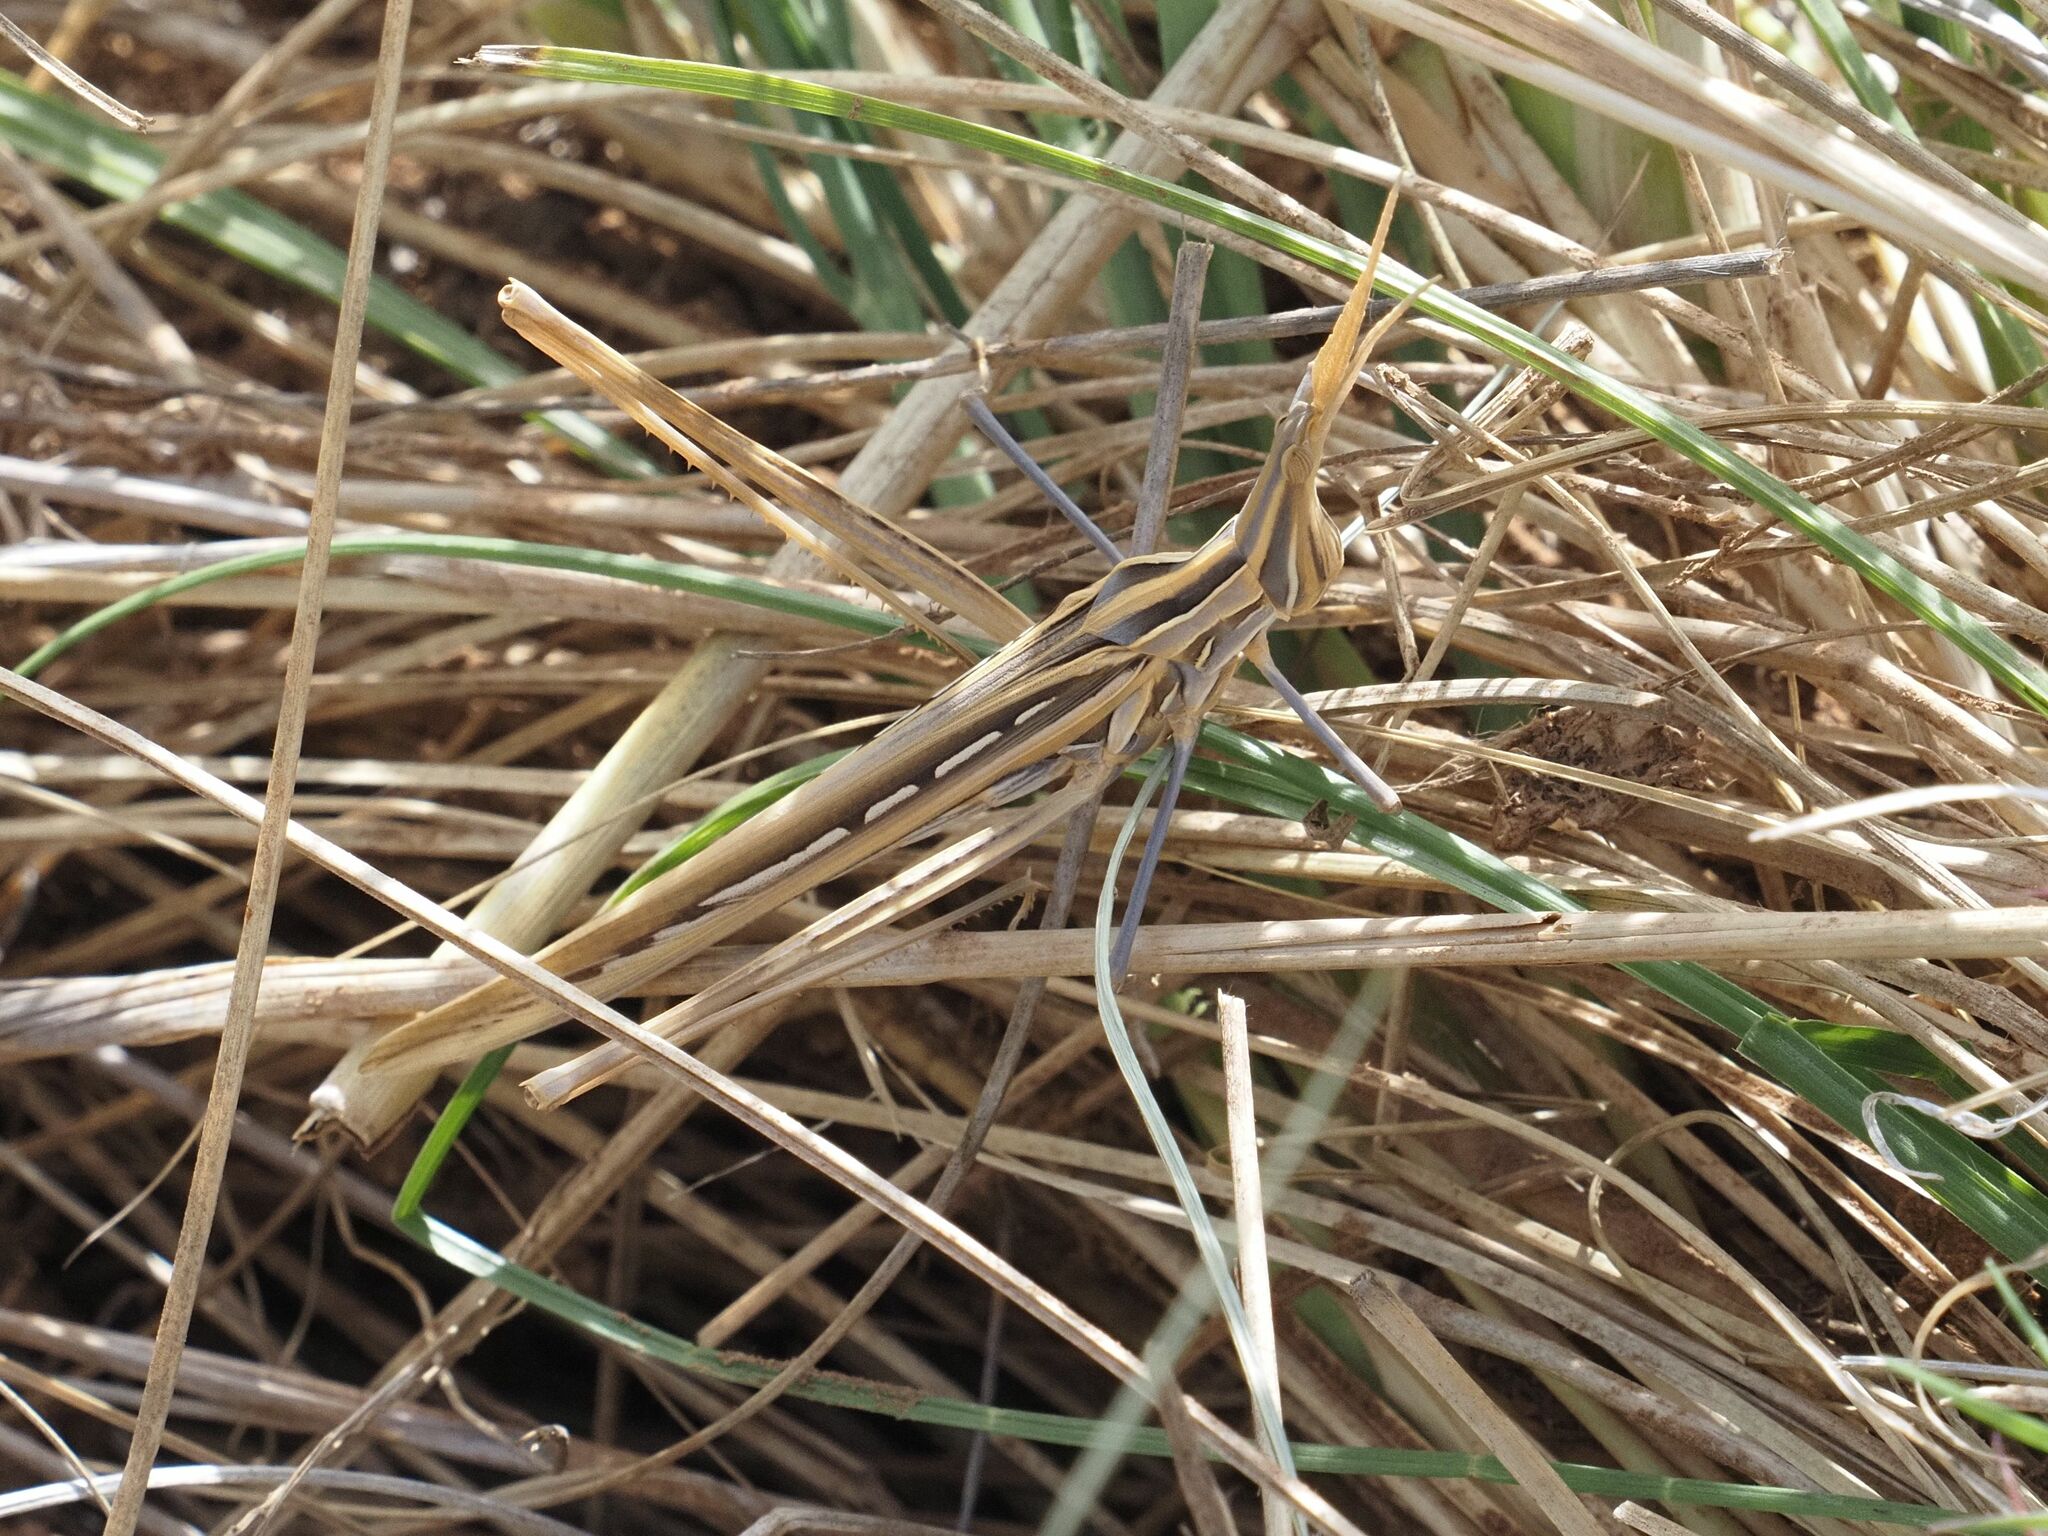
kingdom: Animalia
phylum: Arthropoda
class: Insecta
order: Orthoptera
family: Acrididae
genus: Truxalis
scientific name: Truxalis nasuta
